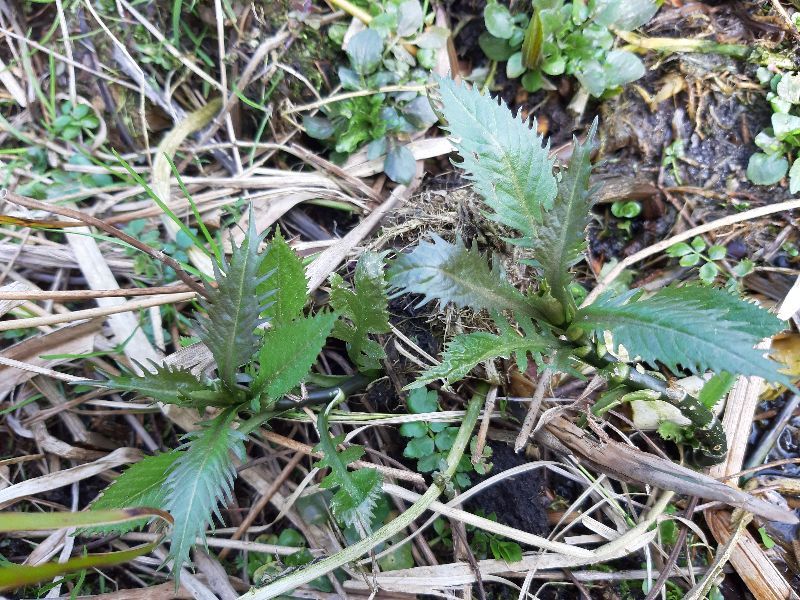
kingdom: Plantae
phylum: Tracheophyta
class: Magnoliopsida
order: Brassicales
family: Brassicaceae
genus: Rorippa
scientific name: Rorippa amphibia
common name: Great yellow-cress
